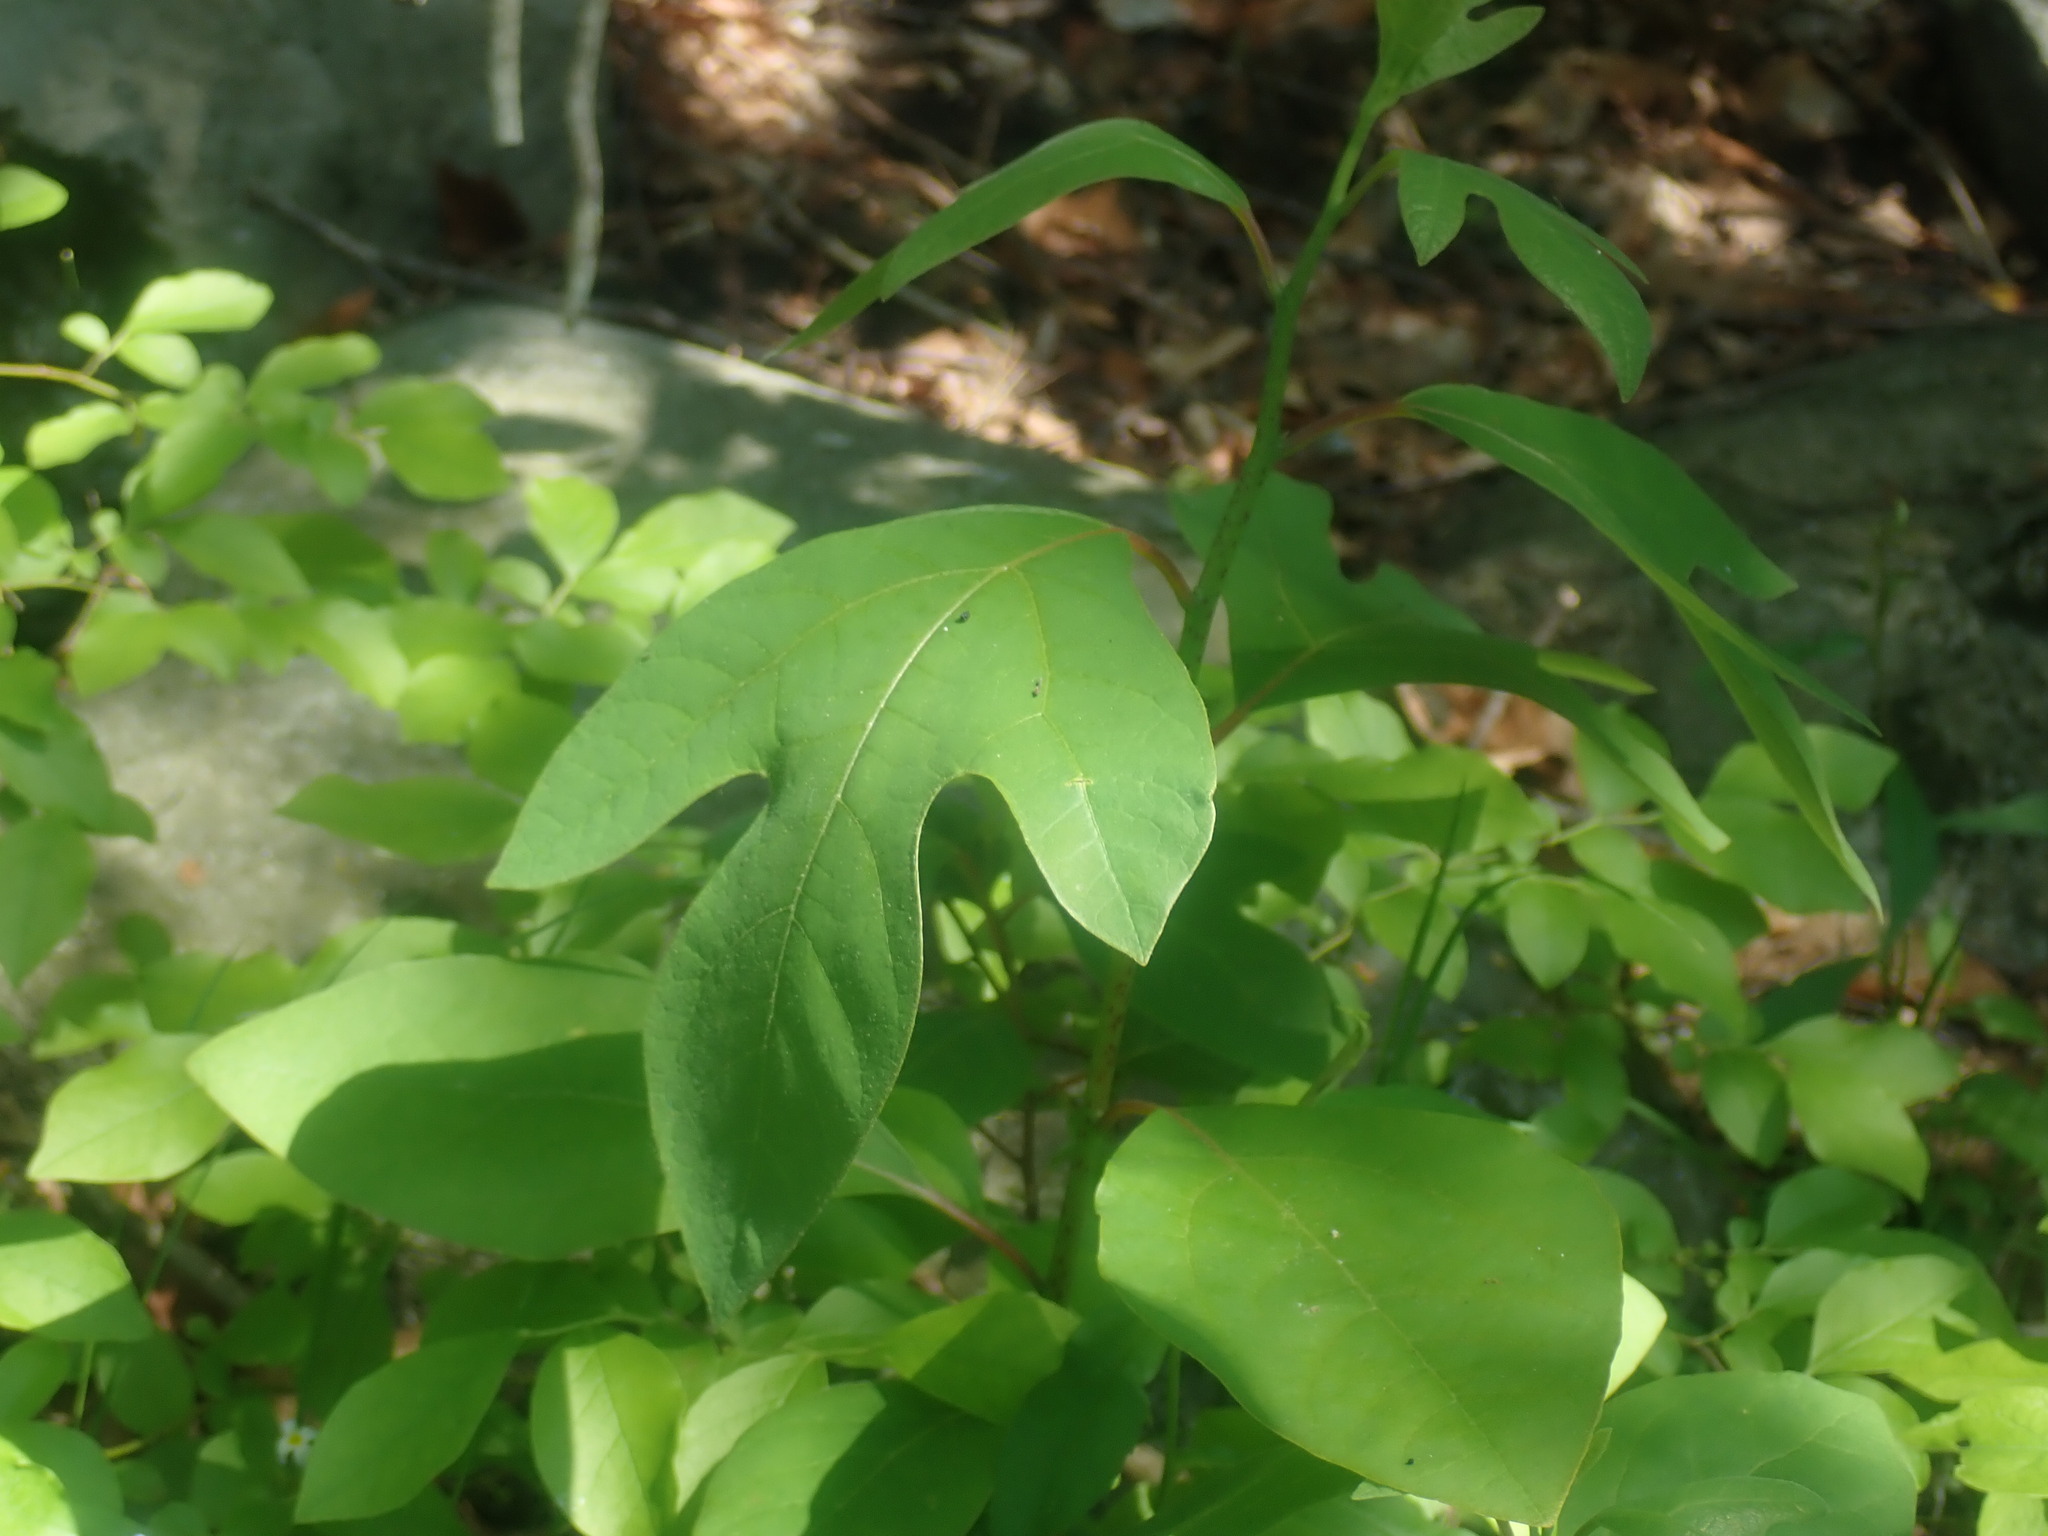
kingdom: Plantae
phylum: Tracheophyta
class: Magnoliopsida
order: Laurales
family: Lauraceae
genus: Sassafras
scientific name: Sassafras albidum
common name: Sassafras
